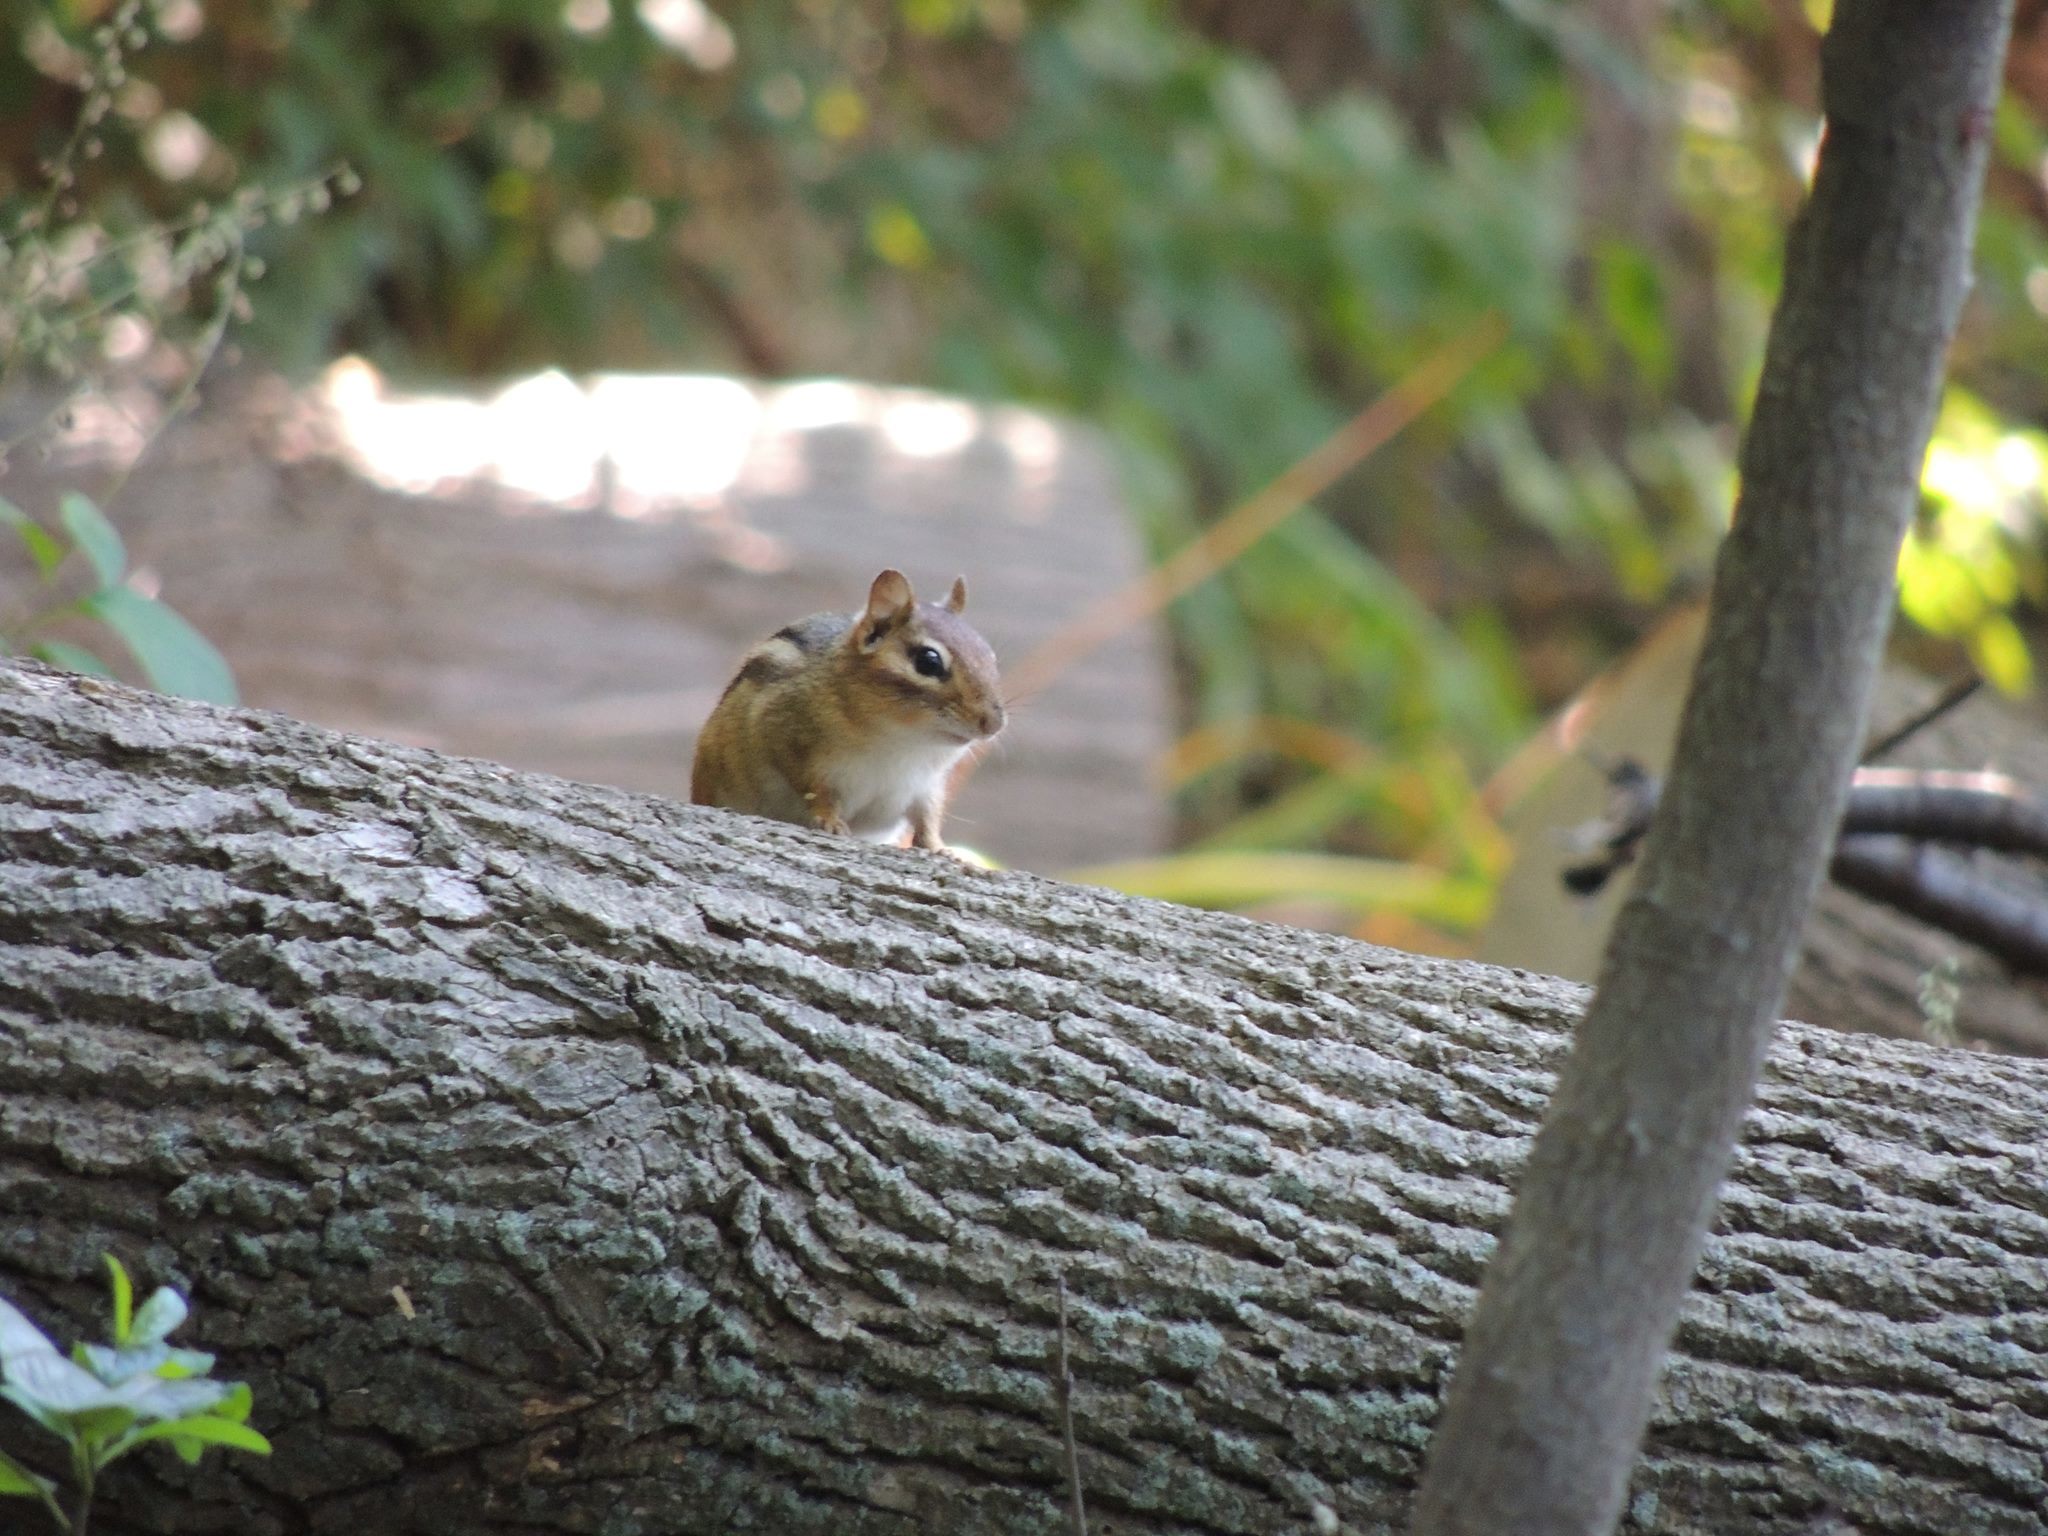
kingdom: Animalia
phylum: Chordata
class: Mammalia
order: Rodentia
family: Sciuridae
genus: Tamias
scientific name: Tamias striatus
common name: Eastern chipmunk
